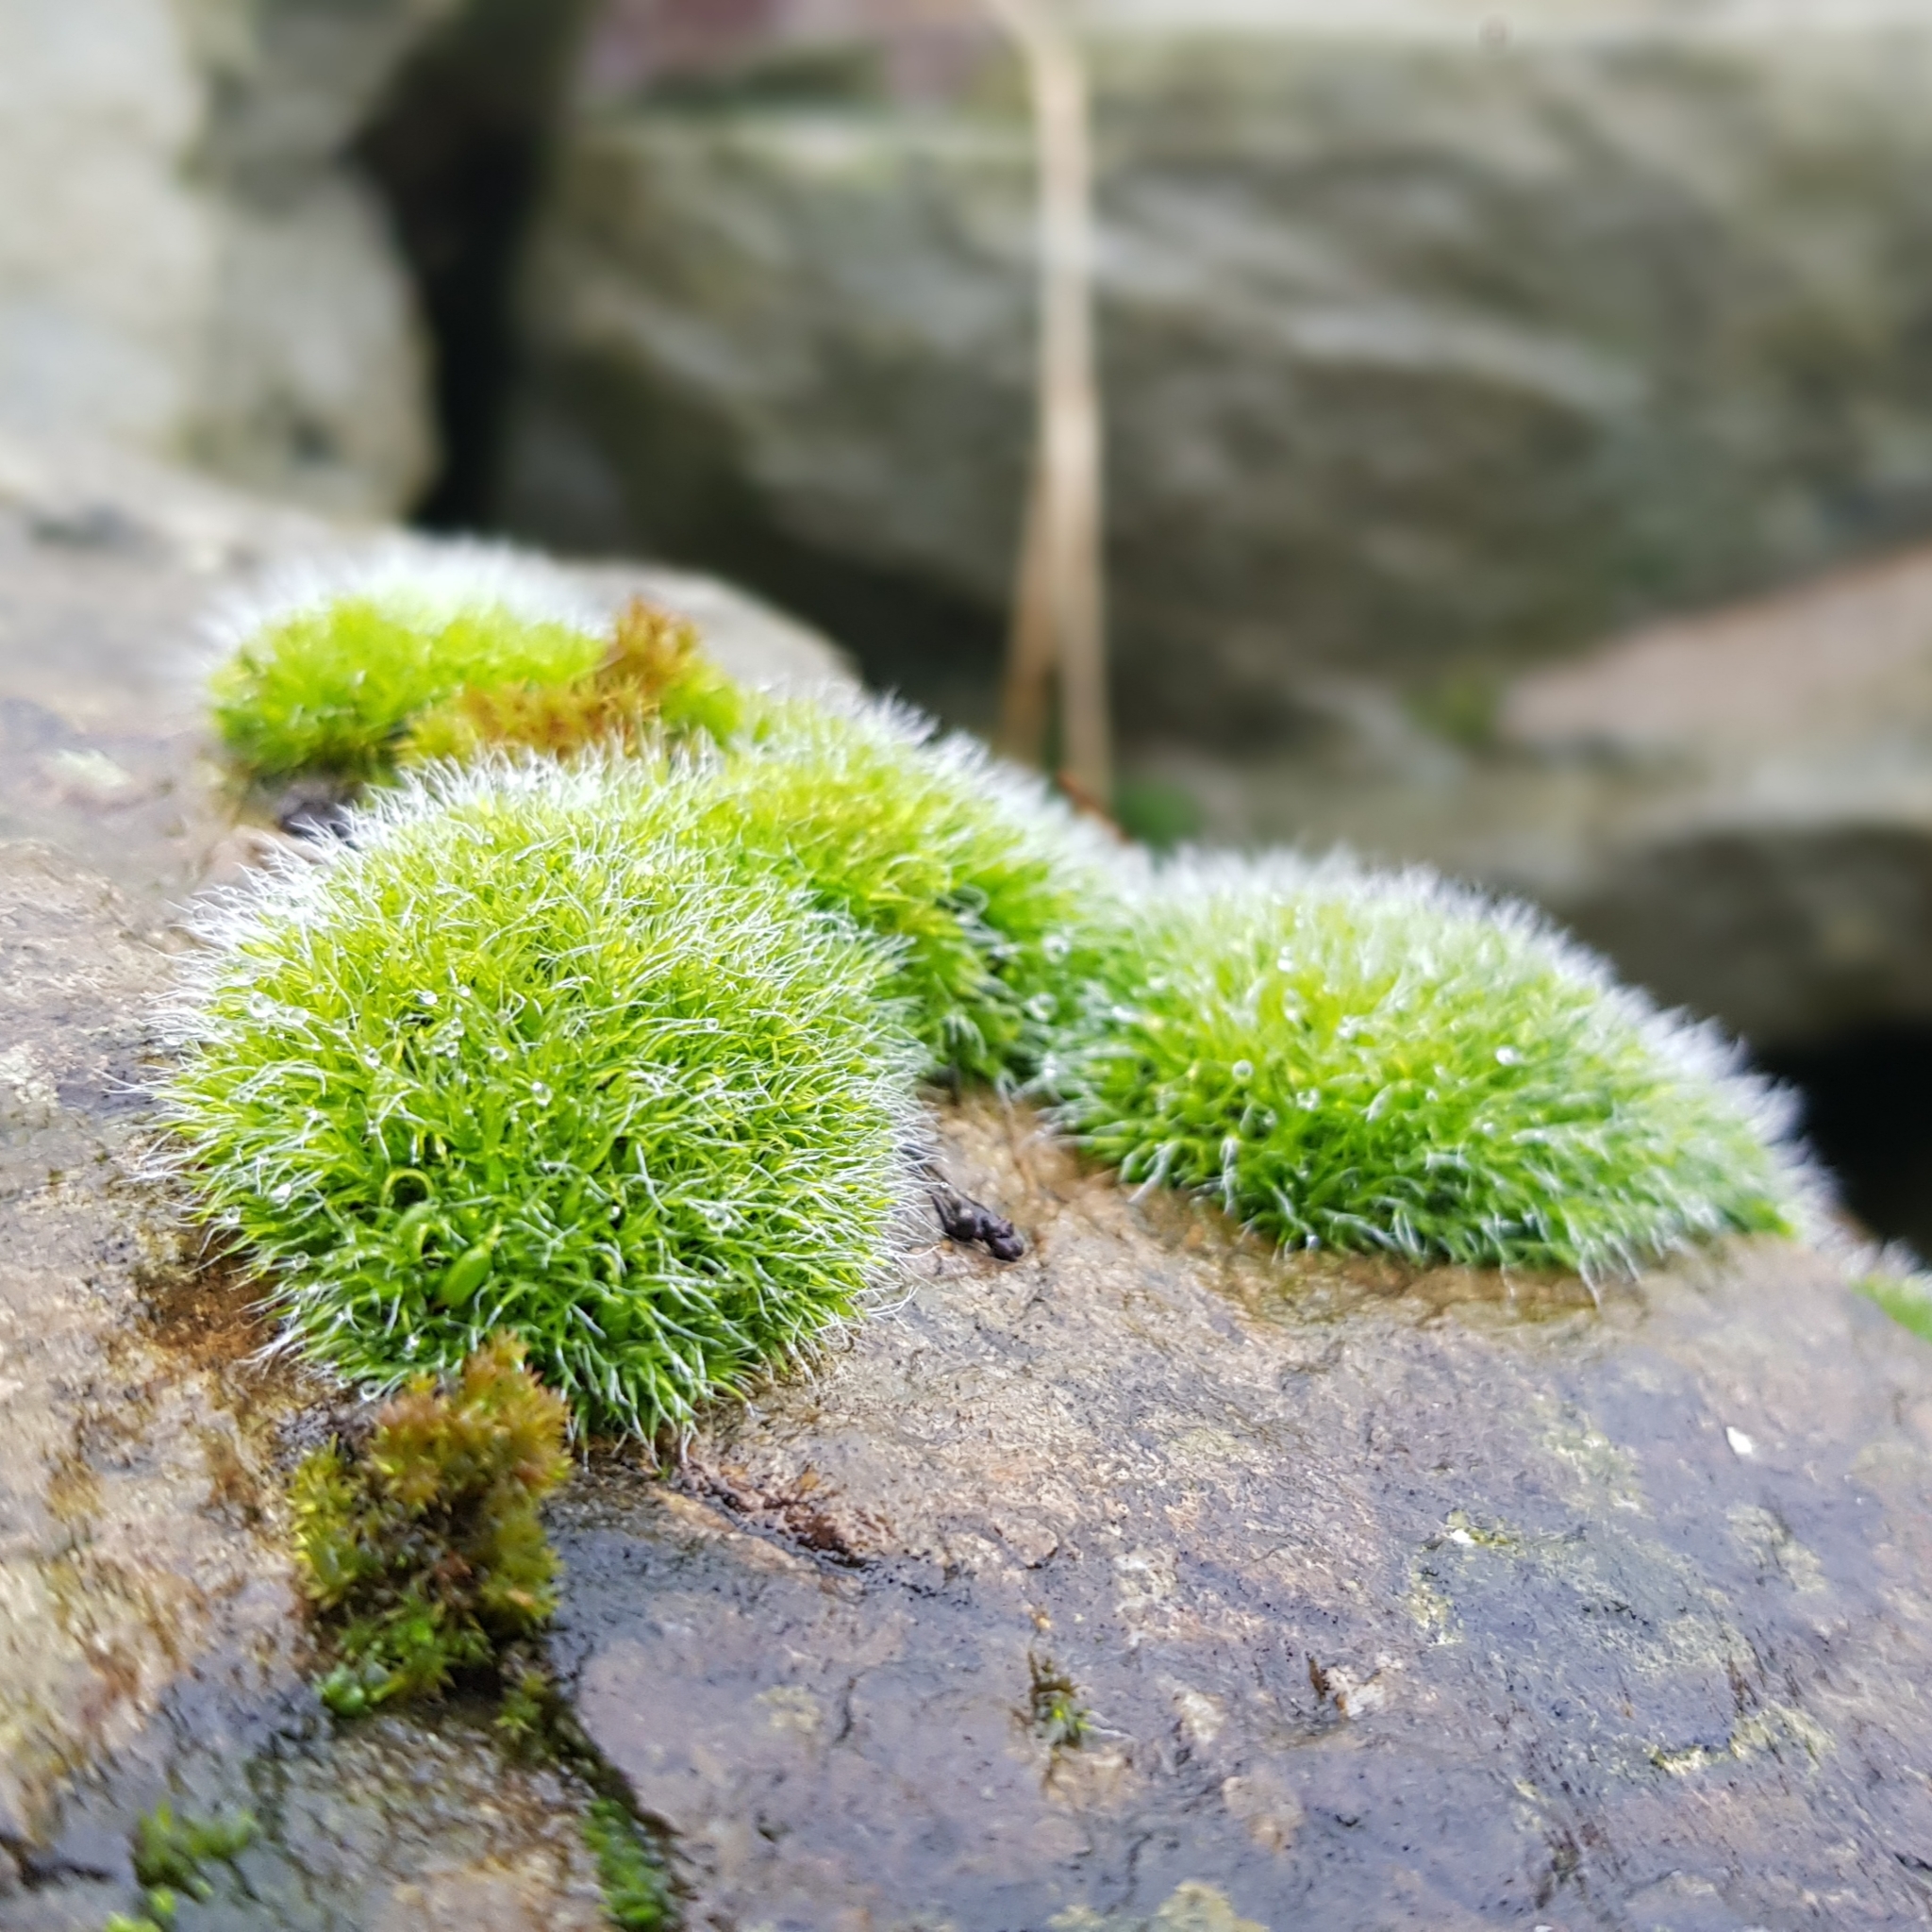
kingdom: Plantae
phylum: Bryophyta
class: Bryopsida
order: Grimmiales
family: Grimmiaceae
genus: Grimmia
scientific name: Grimmia pulvinata
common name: Grey-cushioned grimmia
